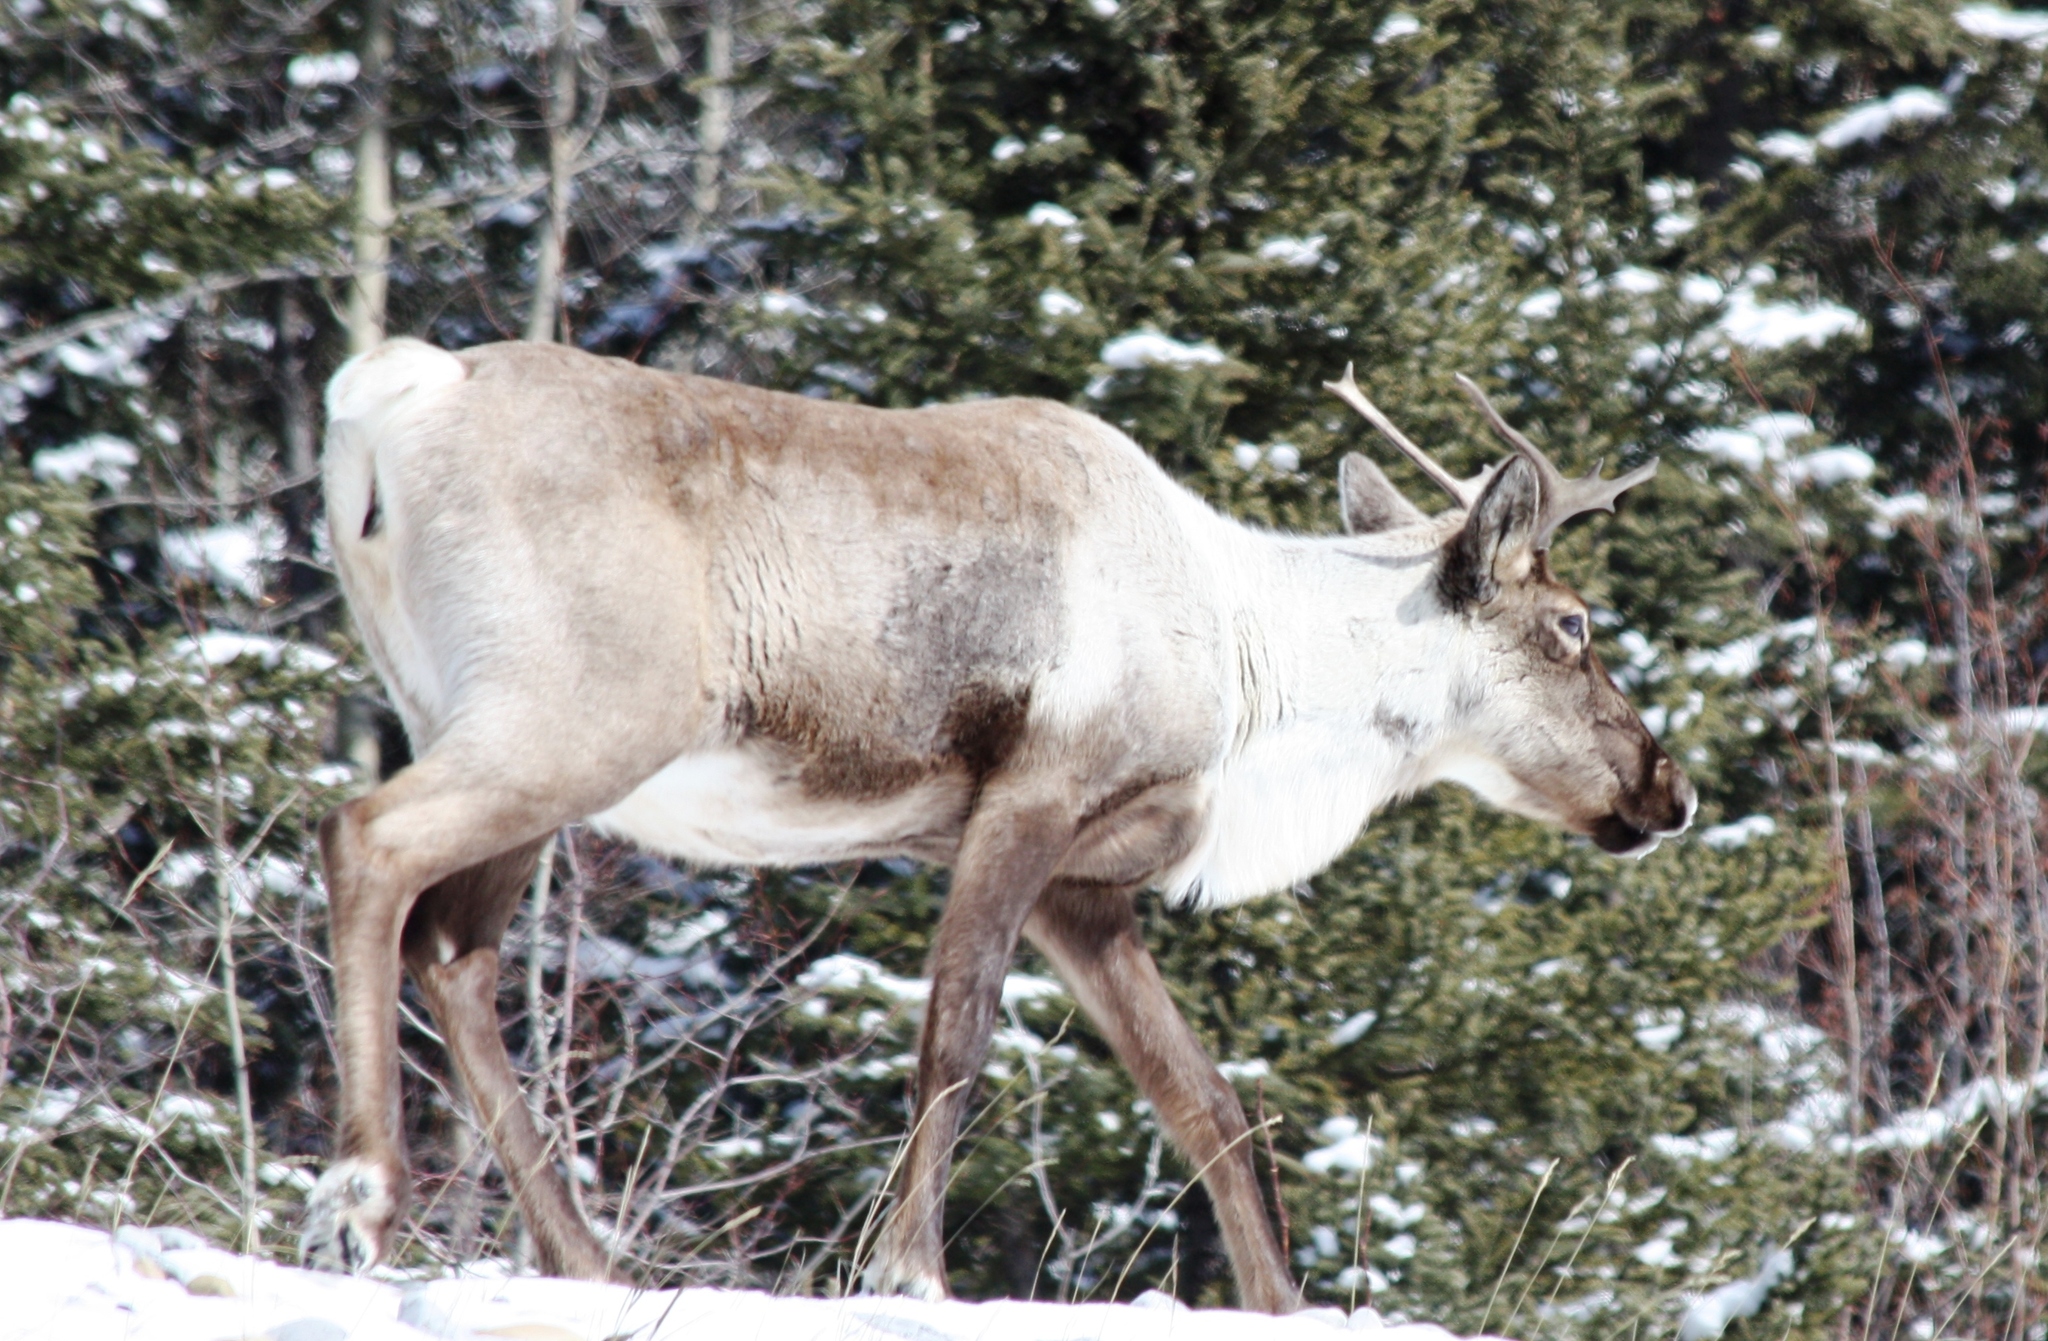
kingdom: Animalia
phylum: Chordata
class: Mammalia
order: Artiodactyla
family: Cervidae
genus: Rangifer
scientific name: Rangifer tarandus
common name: Reindeer
